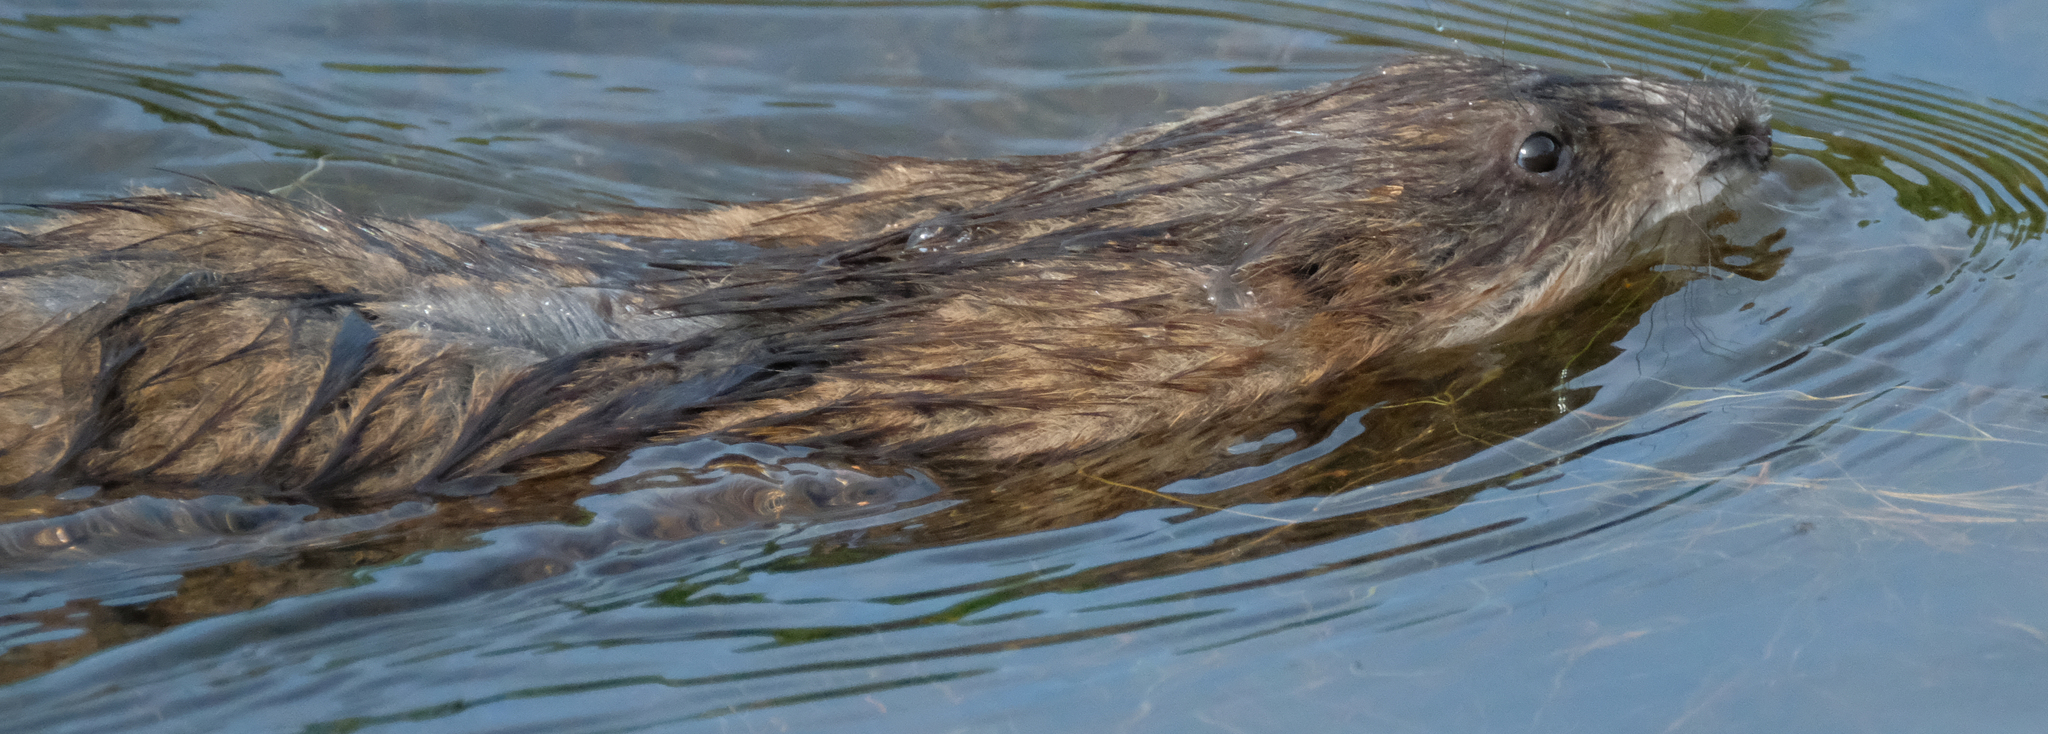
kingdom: Animalia
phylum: Chordata
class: Mammalia
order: Rodentia
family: Cricetidae
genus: Ondatra
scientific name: Ondatra zibethicus
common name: Muskrat
